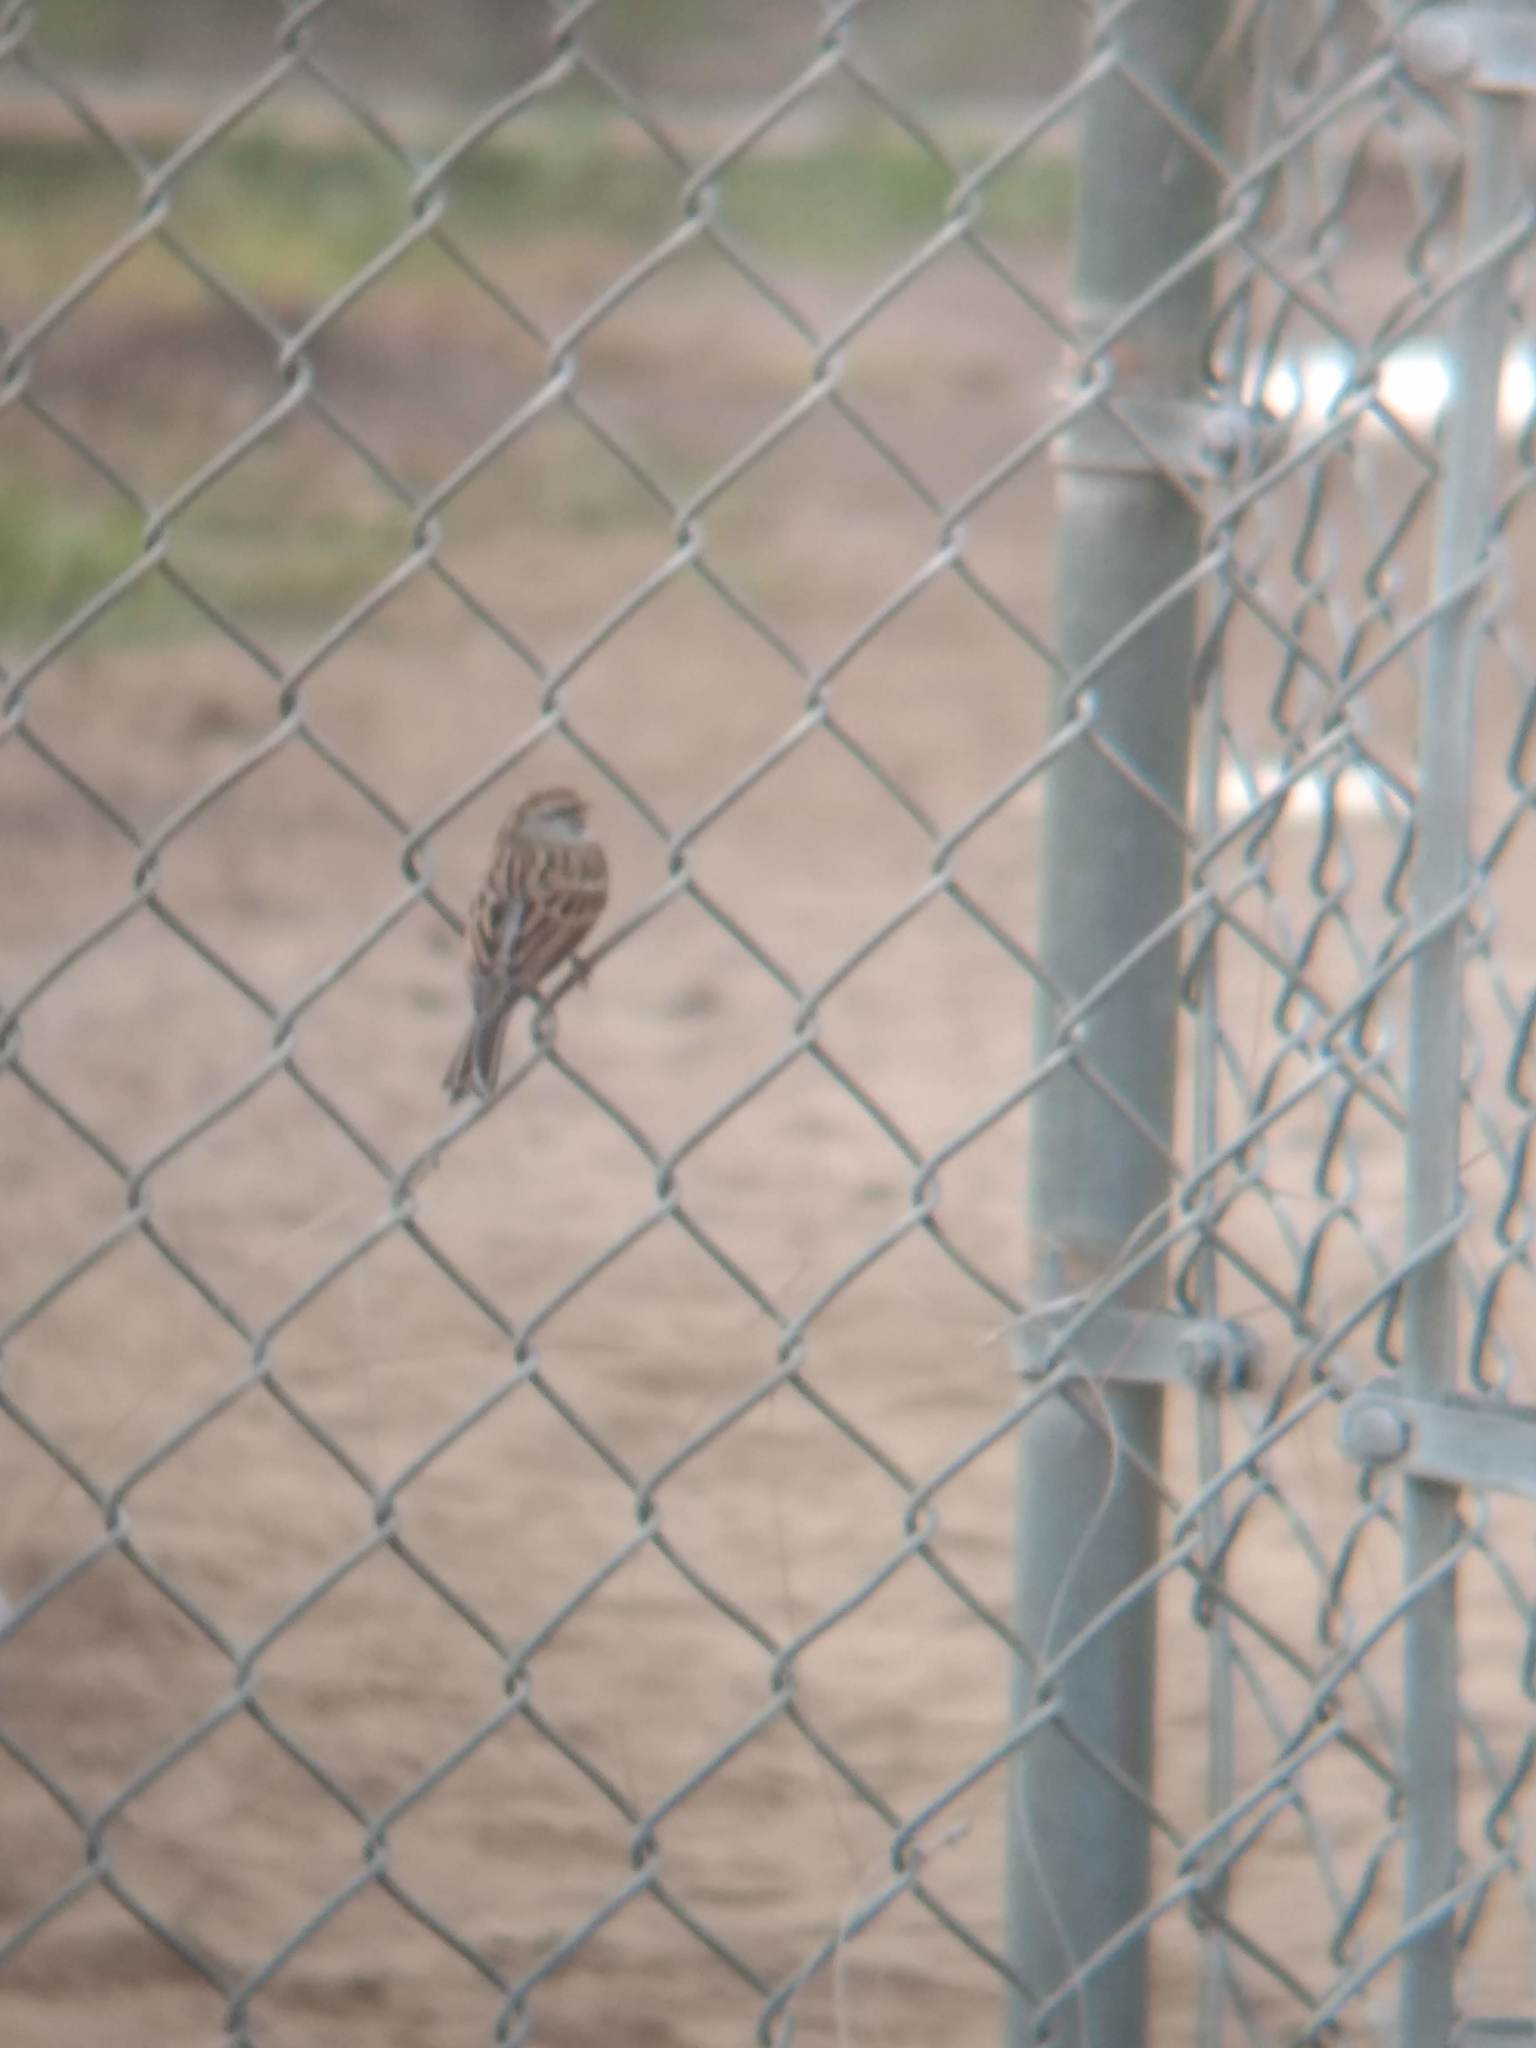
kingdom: Animalia
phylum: Chordata
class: Aves
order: Passeriformes
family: Passerellidae
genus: Spizella
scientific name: Spizella passerina
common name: Chipping sparrow
